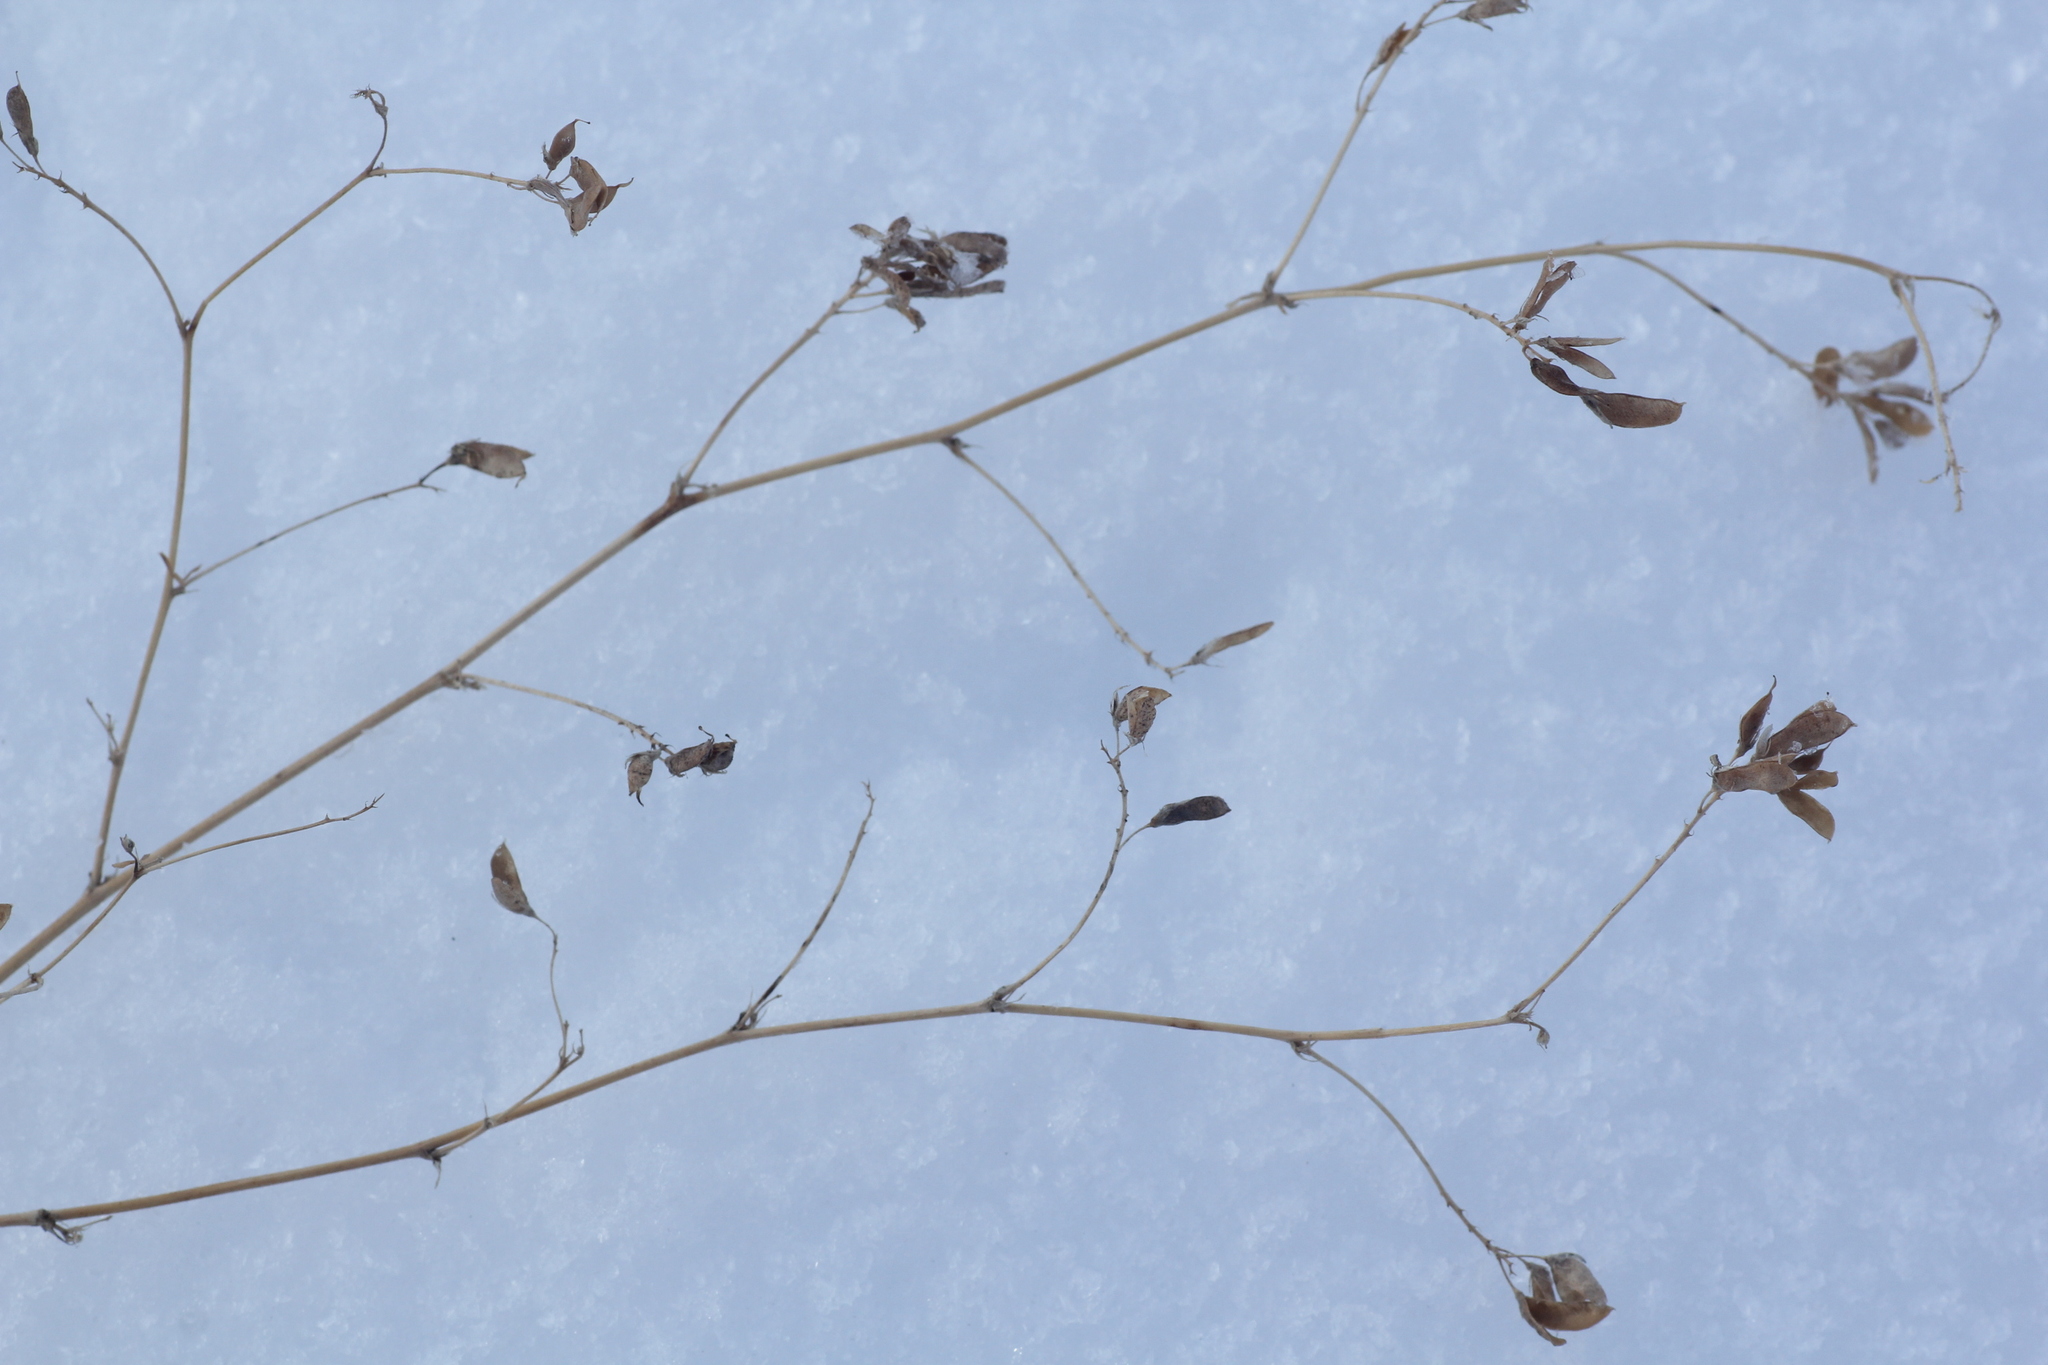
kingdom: Plantae
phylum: Tracheophyta
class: Magnoliopsida
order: Fabales
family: Fabaceae
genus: Medicago
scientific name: Medicago falcata
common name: Sickle medick
